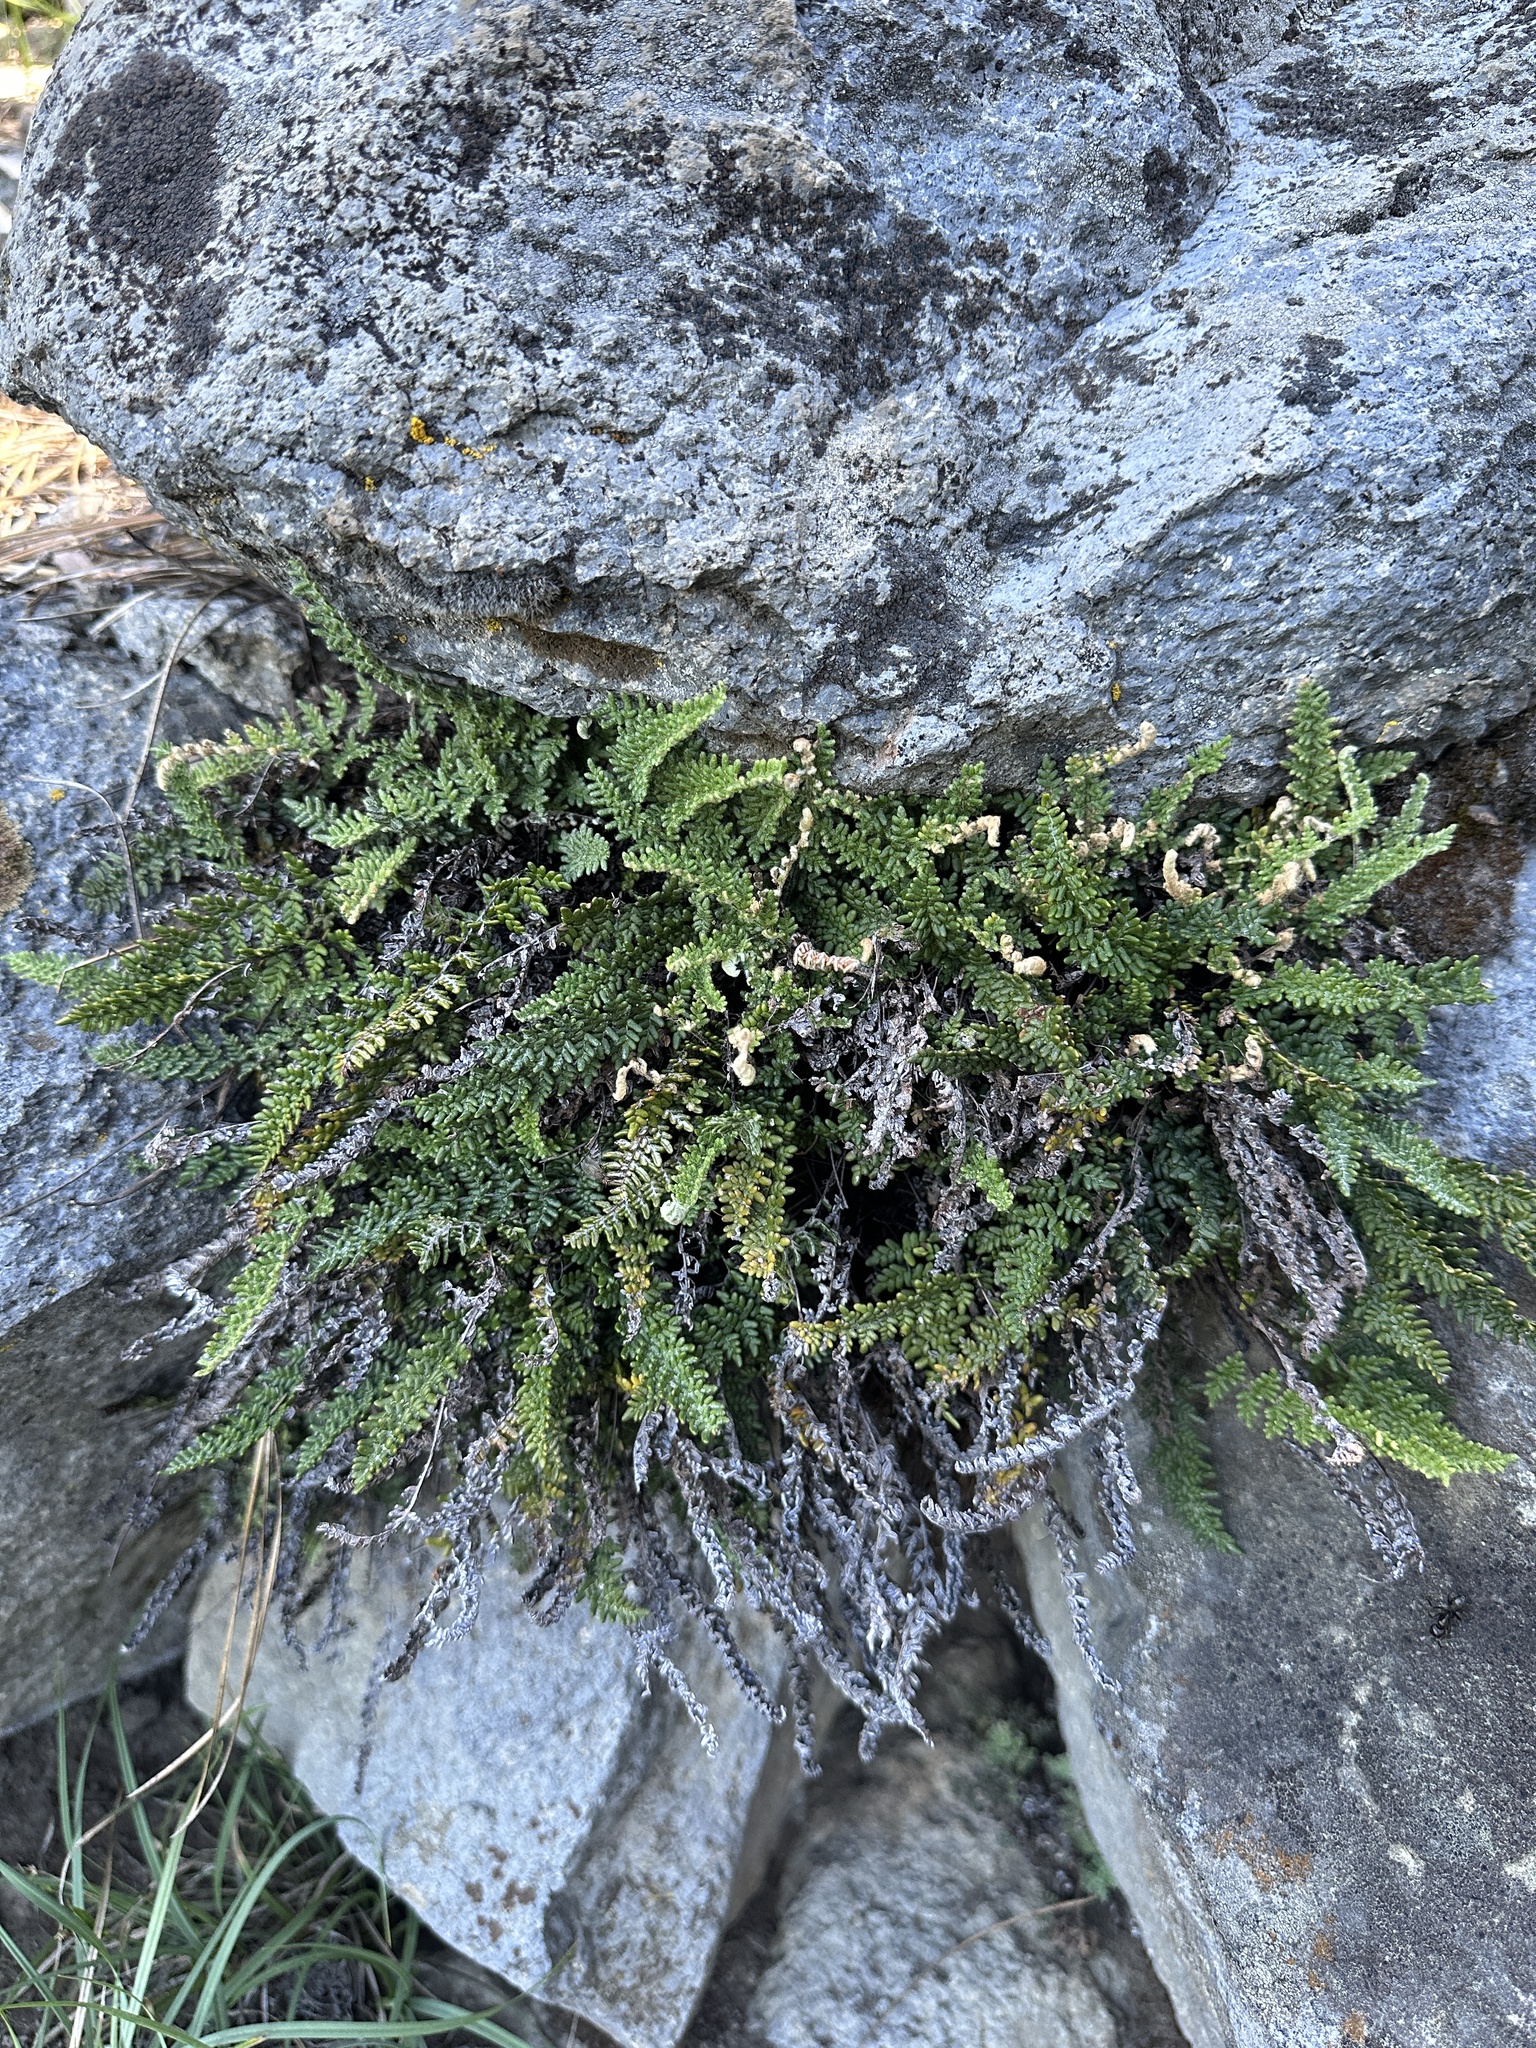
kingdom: Plantae
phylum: Tracheophyta
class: Polypodiopsida
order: Polypodiales
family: Pteridaceae
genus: Myriopteris
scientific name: Myriopteris gracillima
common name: Lace fern
